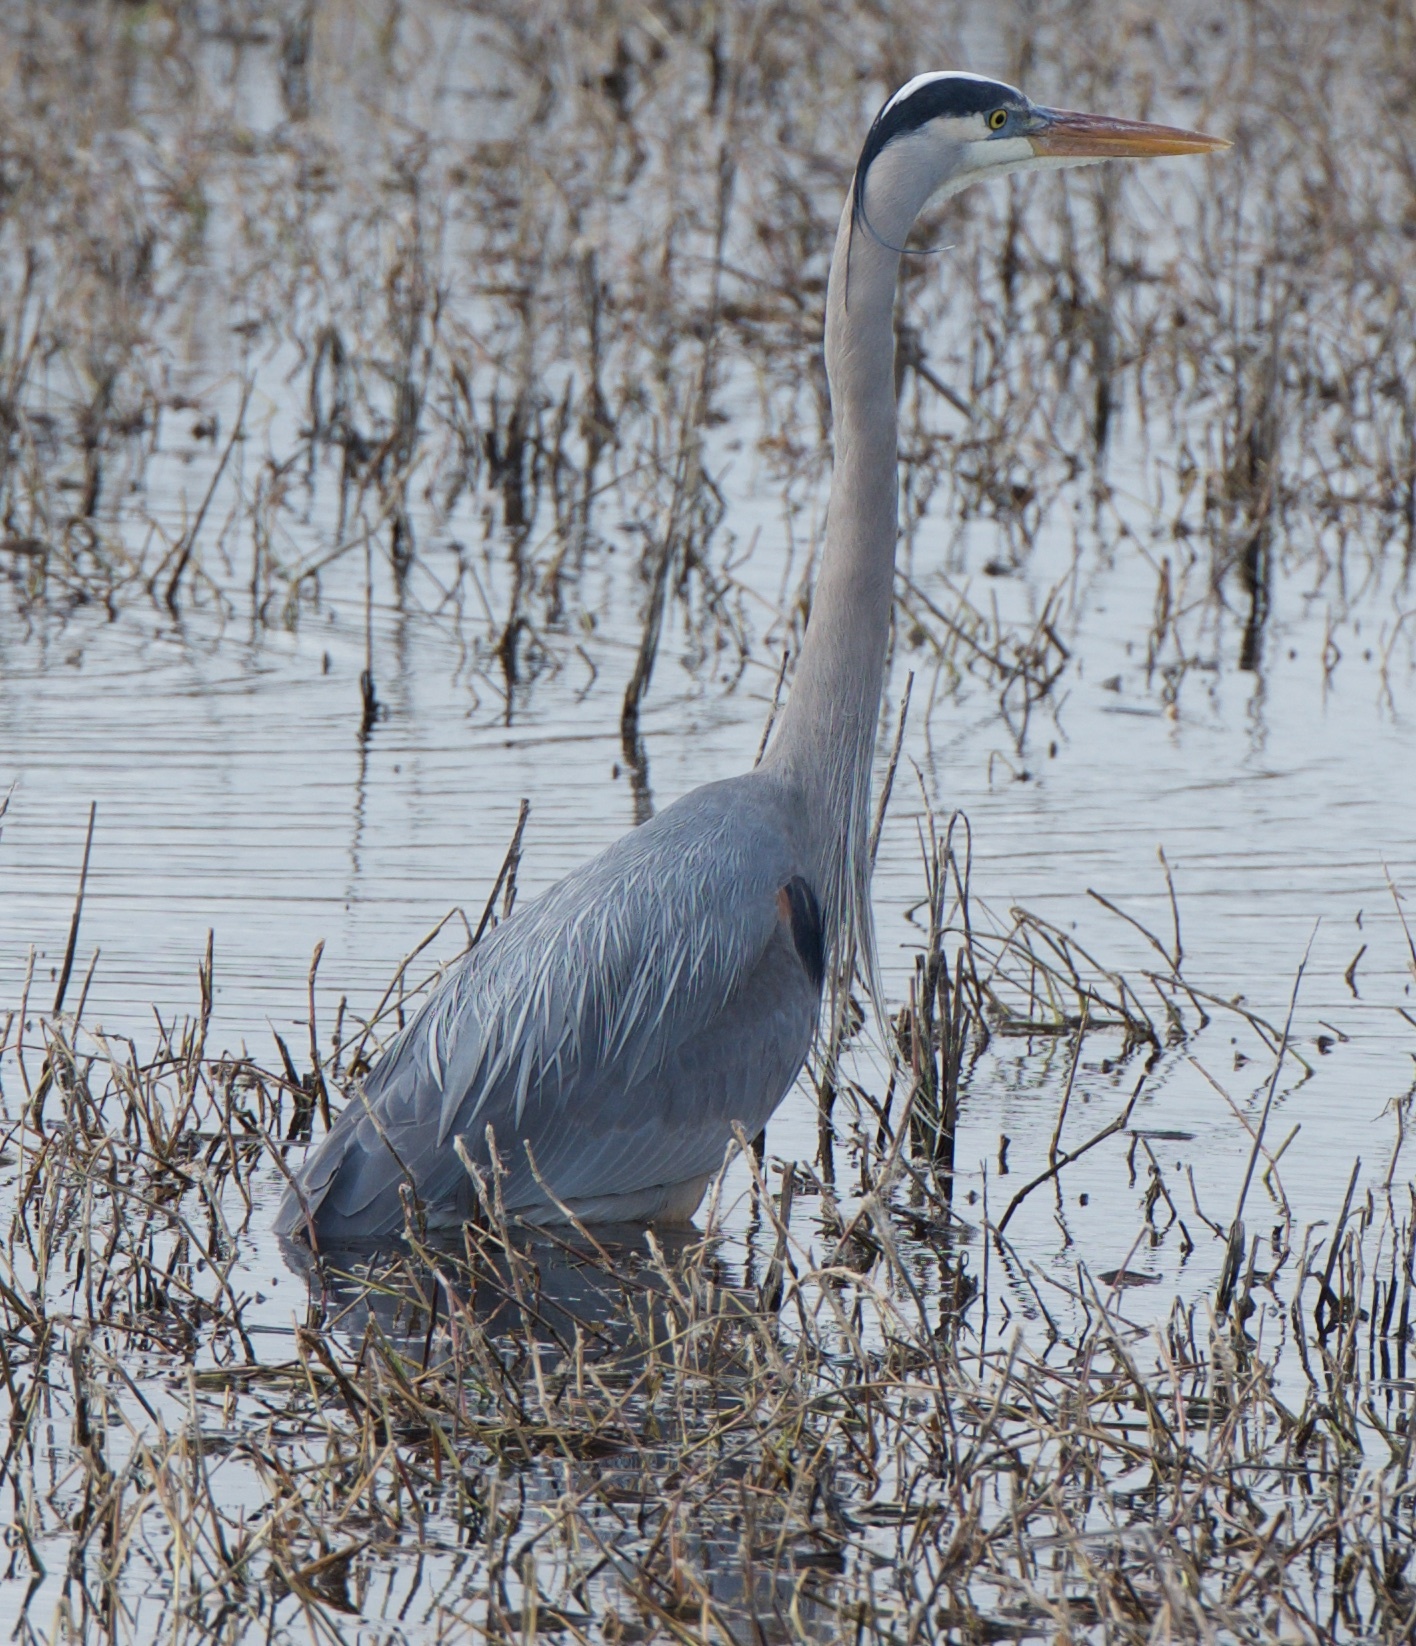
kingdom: Animalia
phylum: Chordata
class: Aves
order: Pelecaniformes
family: Ardeidae
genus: Ardea
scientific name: Ardea herodias
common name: Great blue heron
